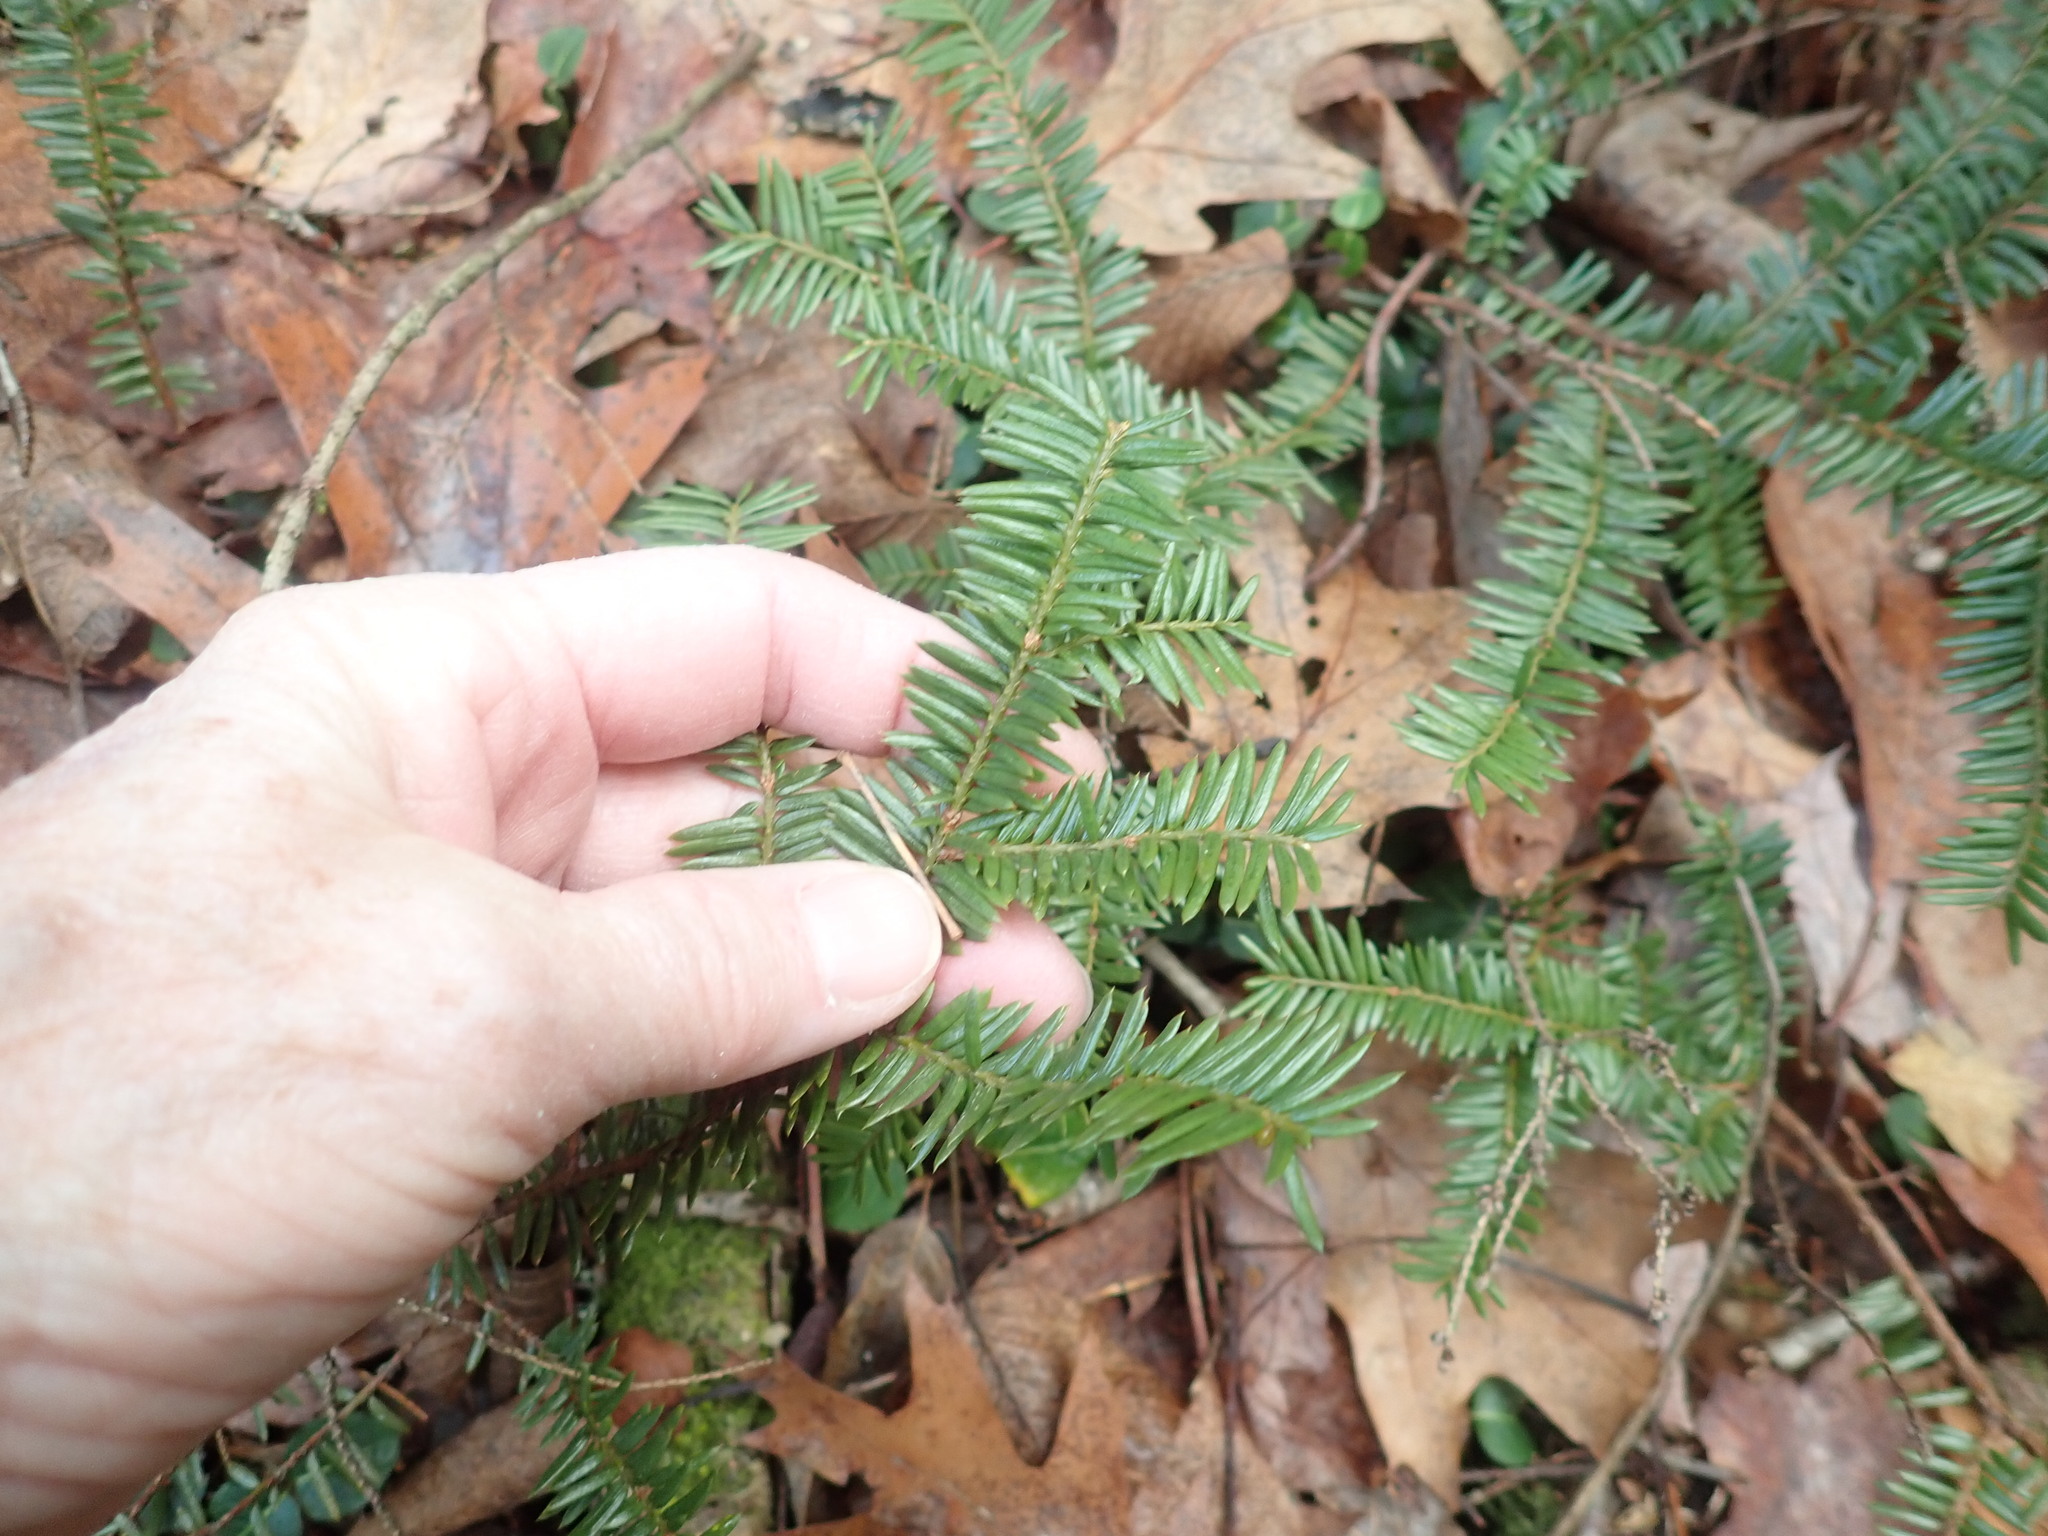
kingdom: Plantae
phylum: Tracheophyta
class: Pinopsida
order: Pinales
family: Taxaceae
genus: Taxus
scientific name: Taxus canadensis
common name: American yew
